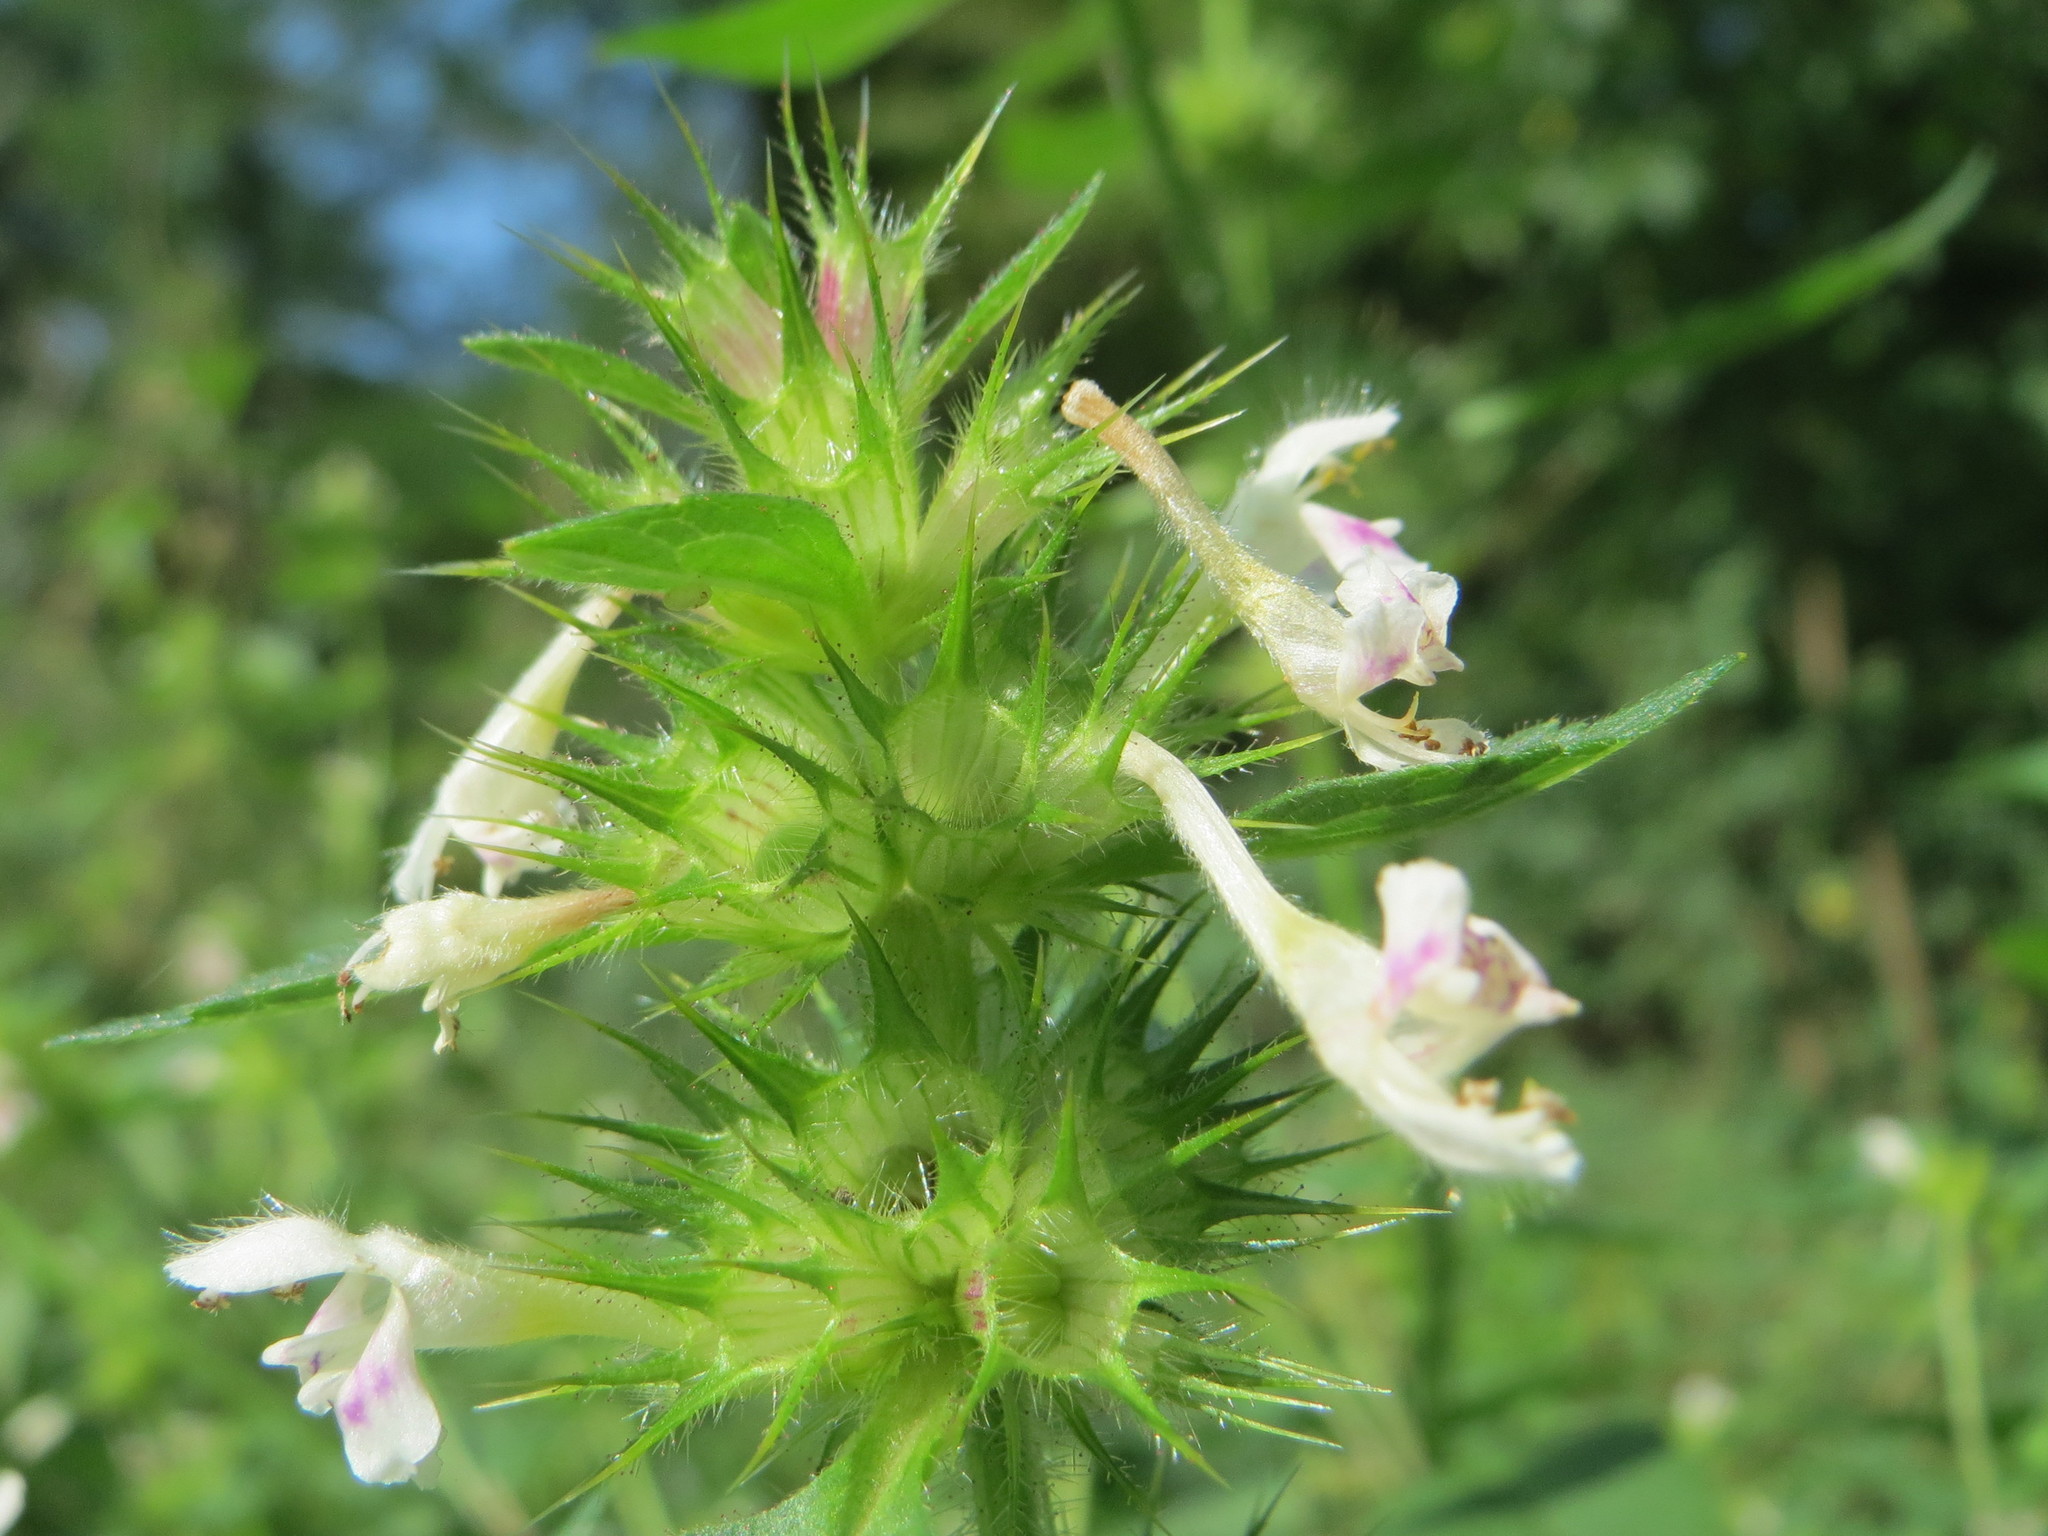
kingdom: Plantae
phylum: Tracheophyta
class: Magnoliopsida
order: Lamiales
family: Lamiaceae
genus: Galeopsis
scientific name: Galeopsis tetrahit
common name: Common hemp-nettle
